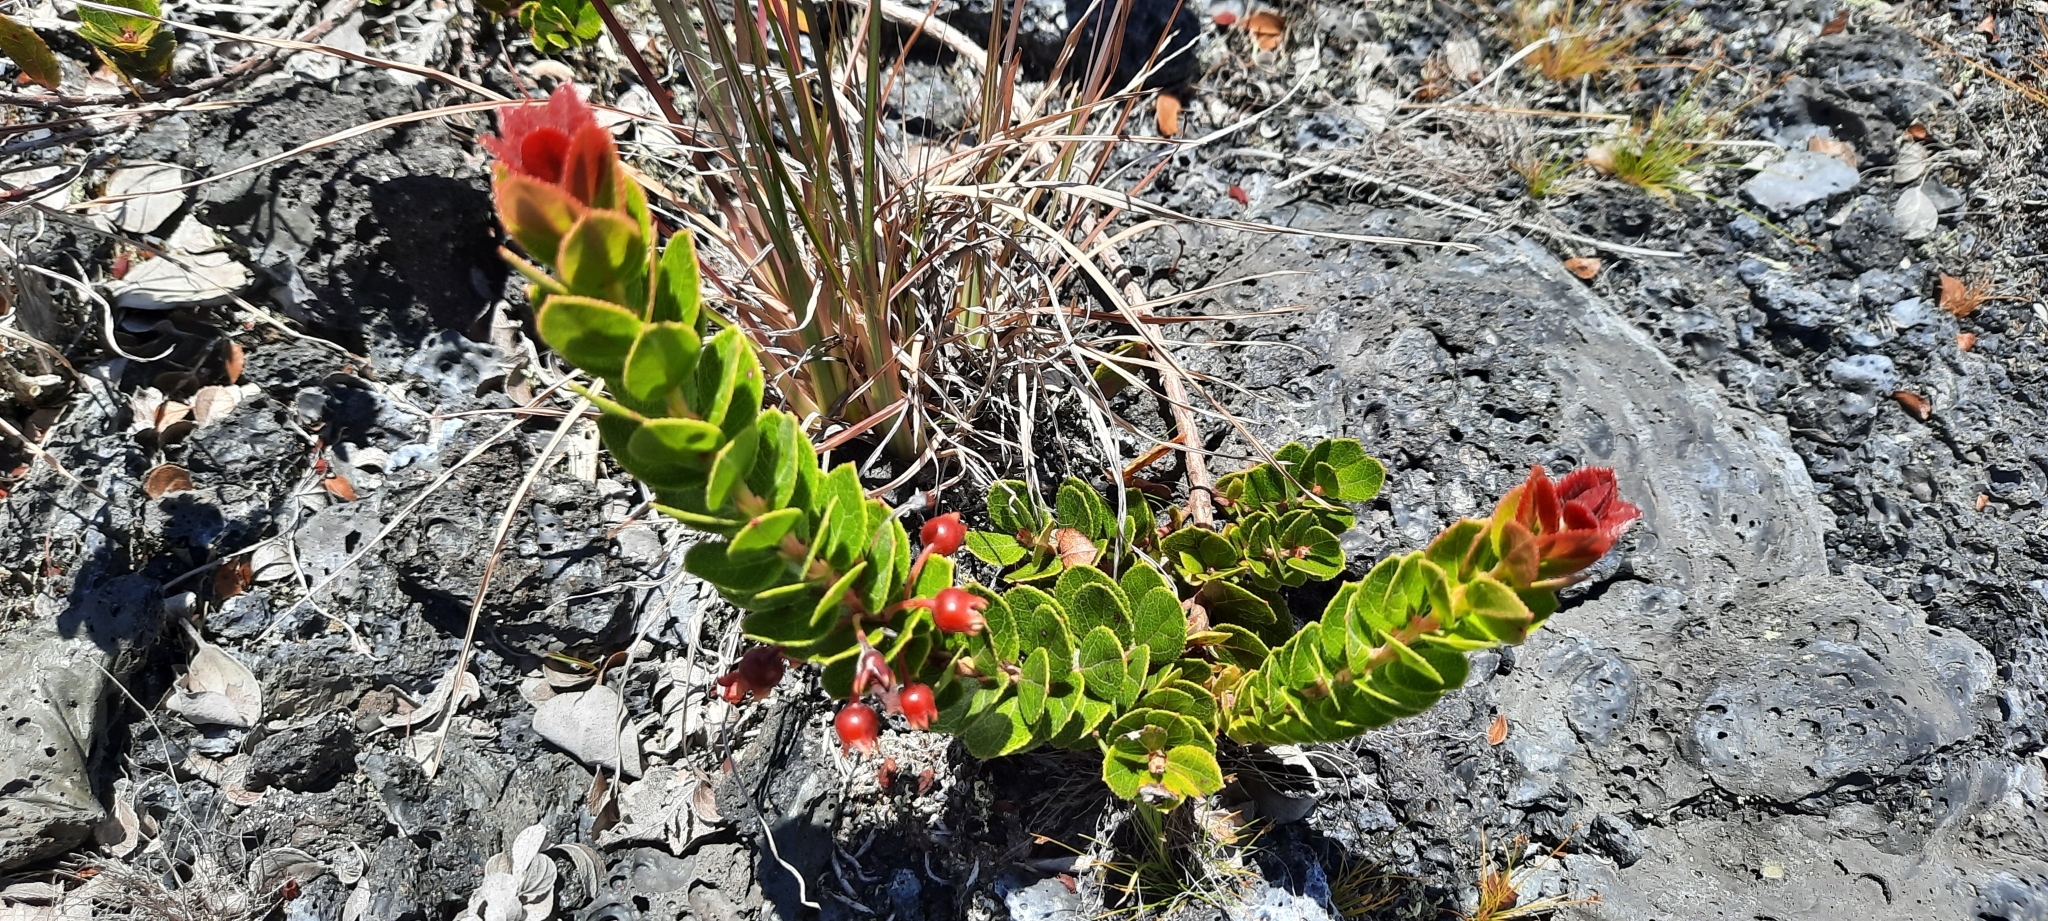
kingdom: Plantae
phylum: Tracheophyta
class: Magnoliopsida
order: Ericales
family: Ericaceae
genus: Vaccinium
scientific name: Vaccinium reticulatum
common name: Ohelo
